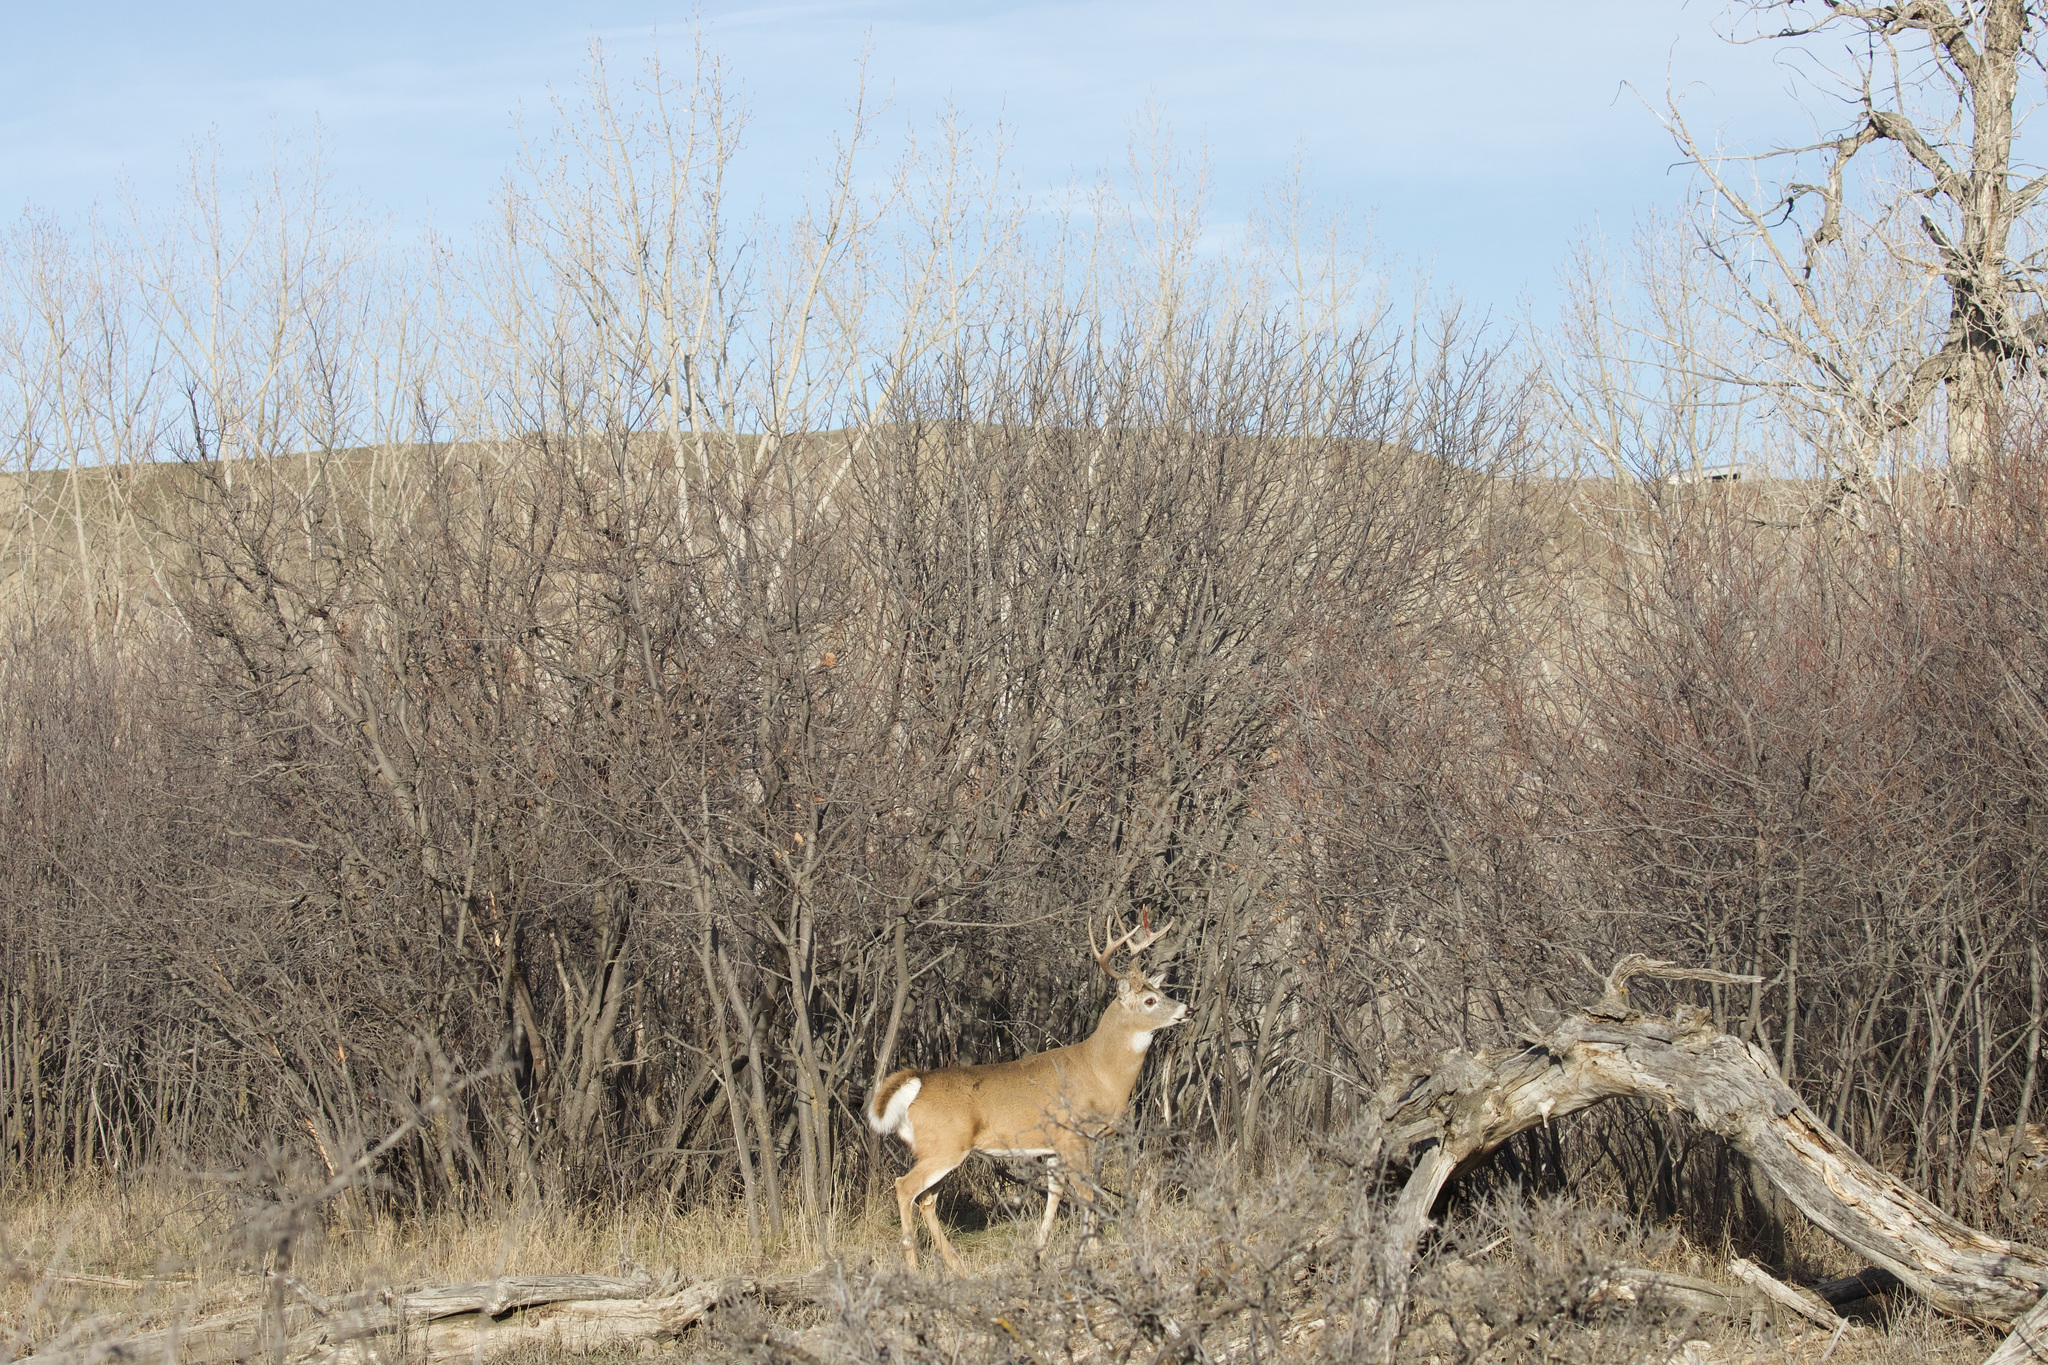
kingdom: Animalia
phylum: Chordata
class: Mammalia
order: Artiodactyla
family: Cervidae
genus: Odocoileus
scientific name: Odocoileus virginianus
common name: White-tailed deer
